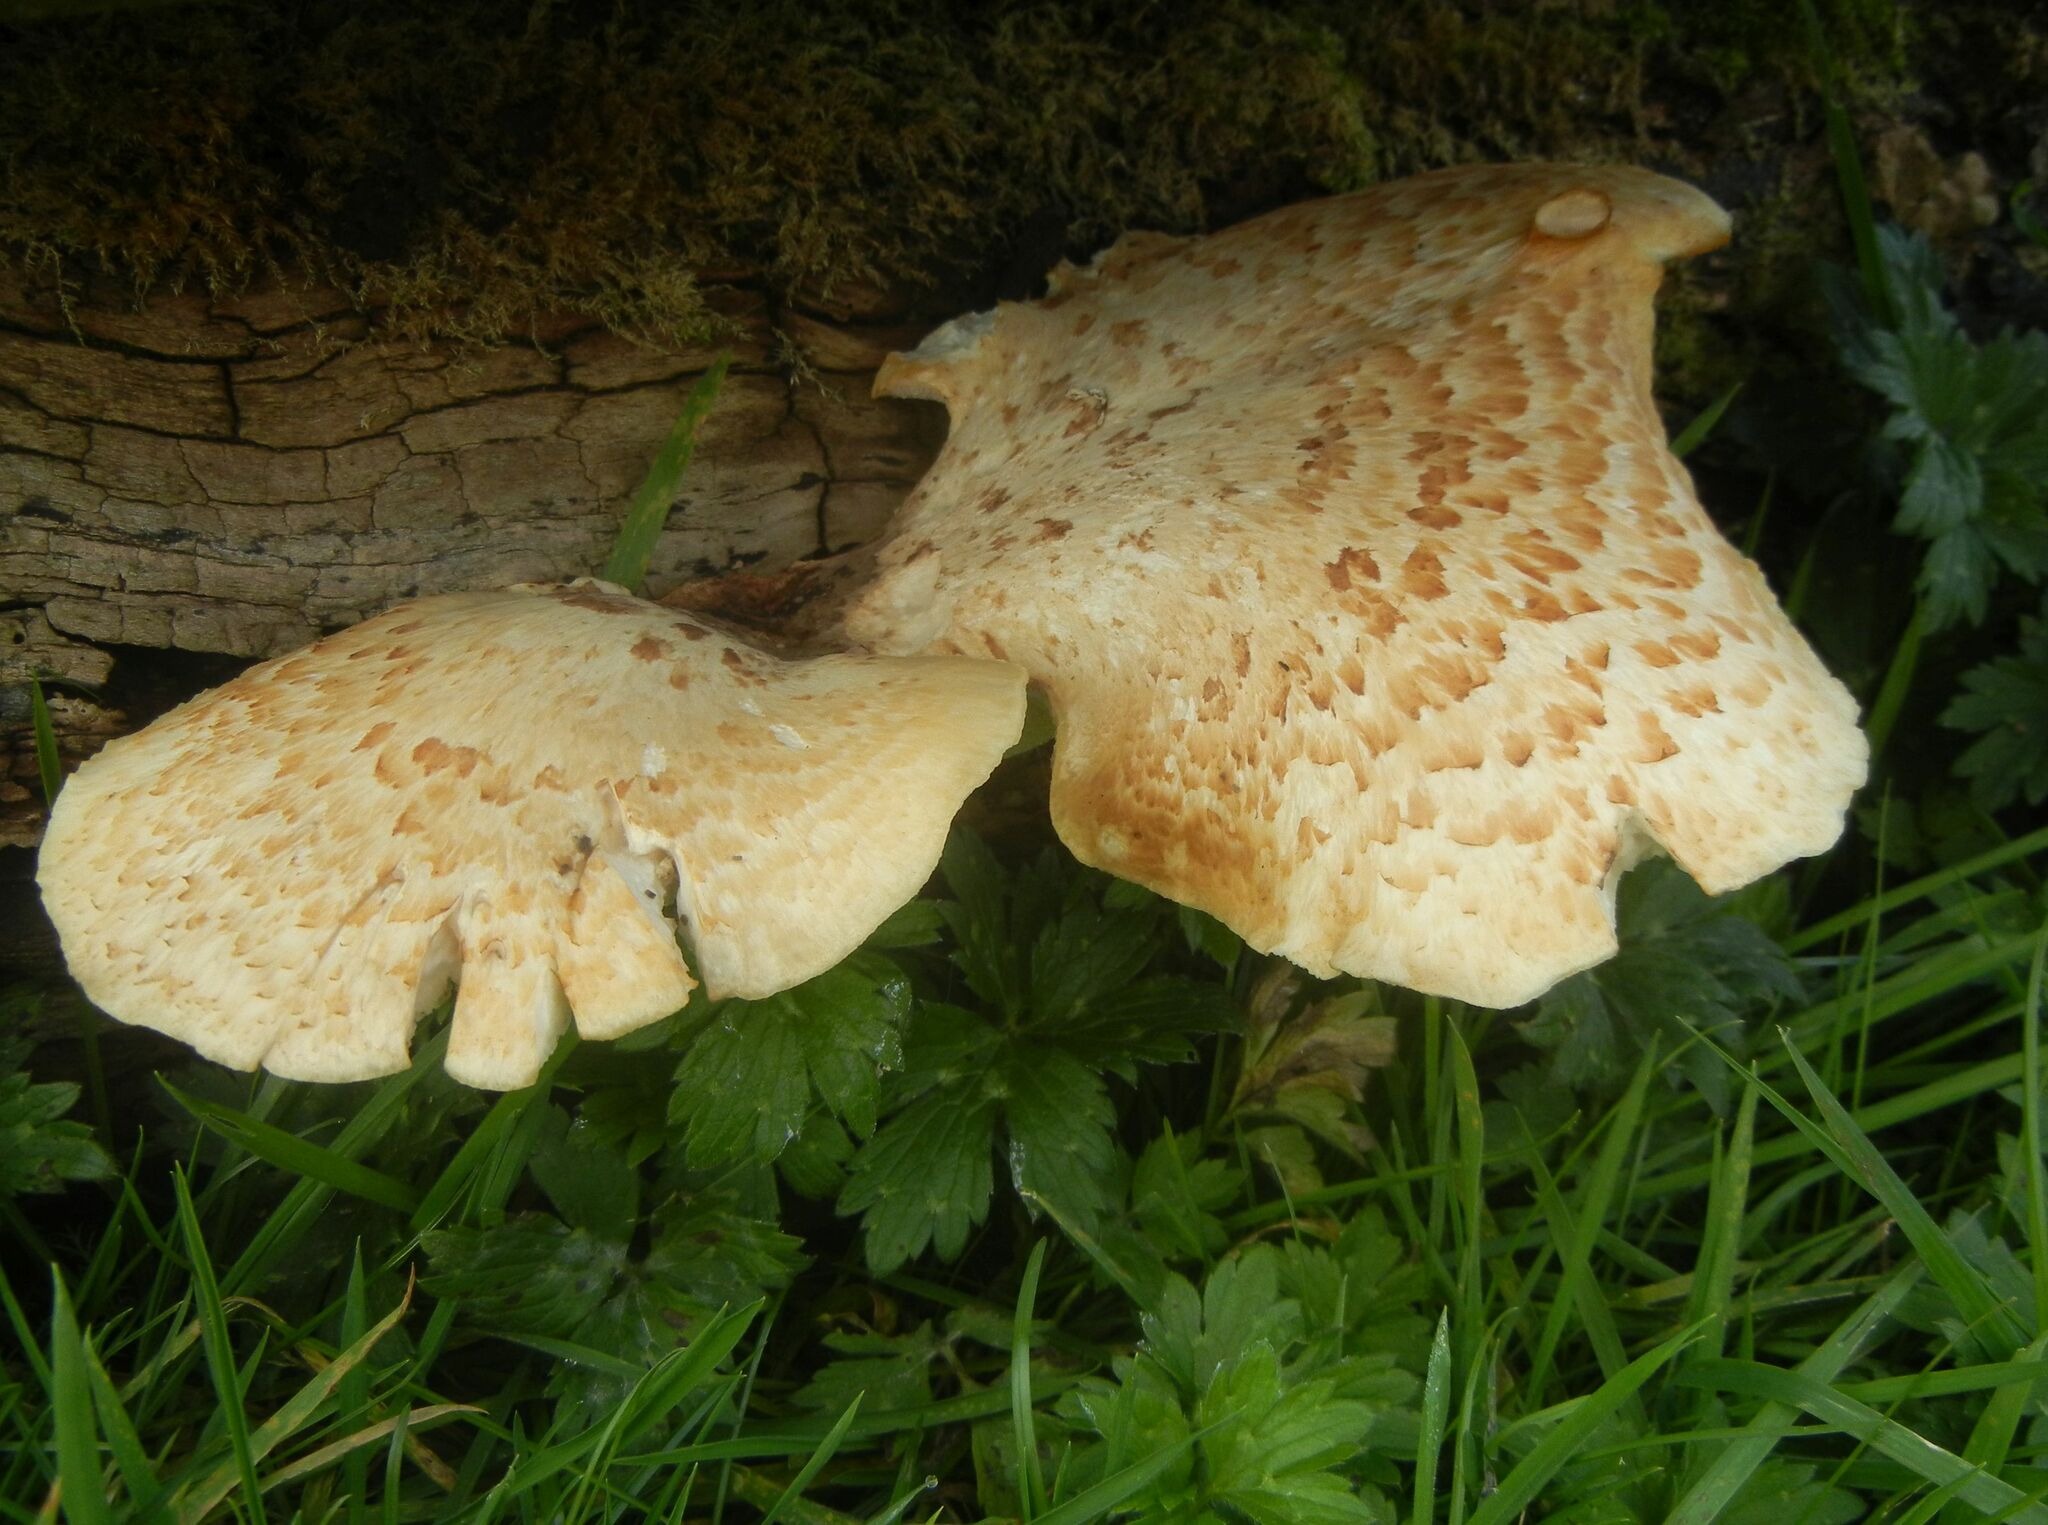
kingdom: Fungi
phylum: Basidiomycota
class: Agaricomycetes
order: Polyporales
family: Polyporaceae
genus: Cerioporus
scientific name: Cerioporus squamosus
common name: Dryad's saddle
